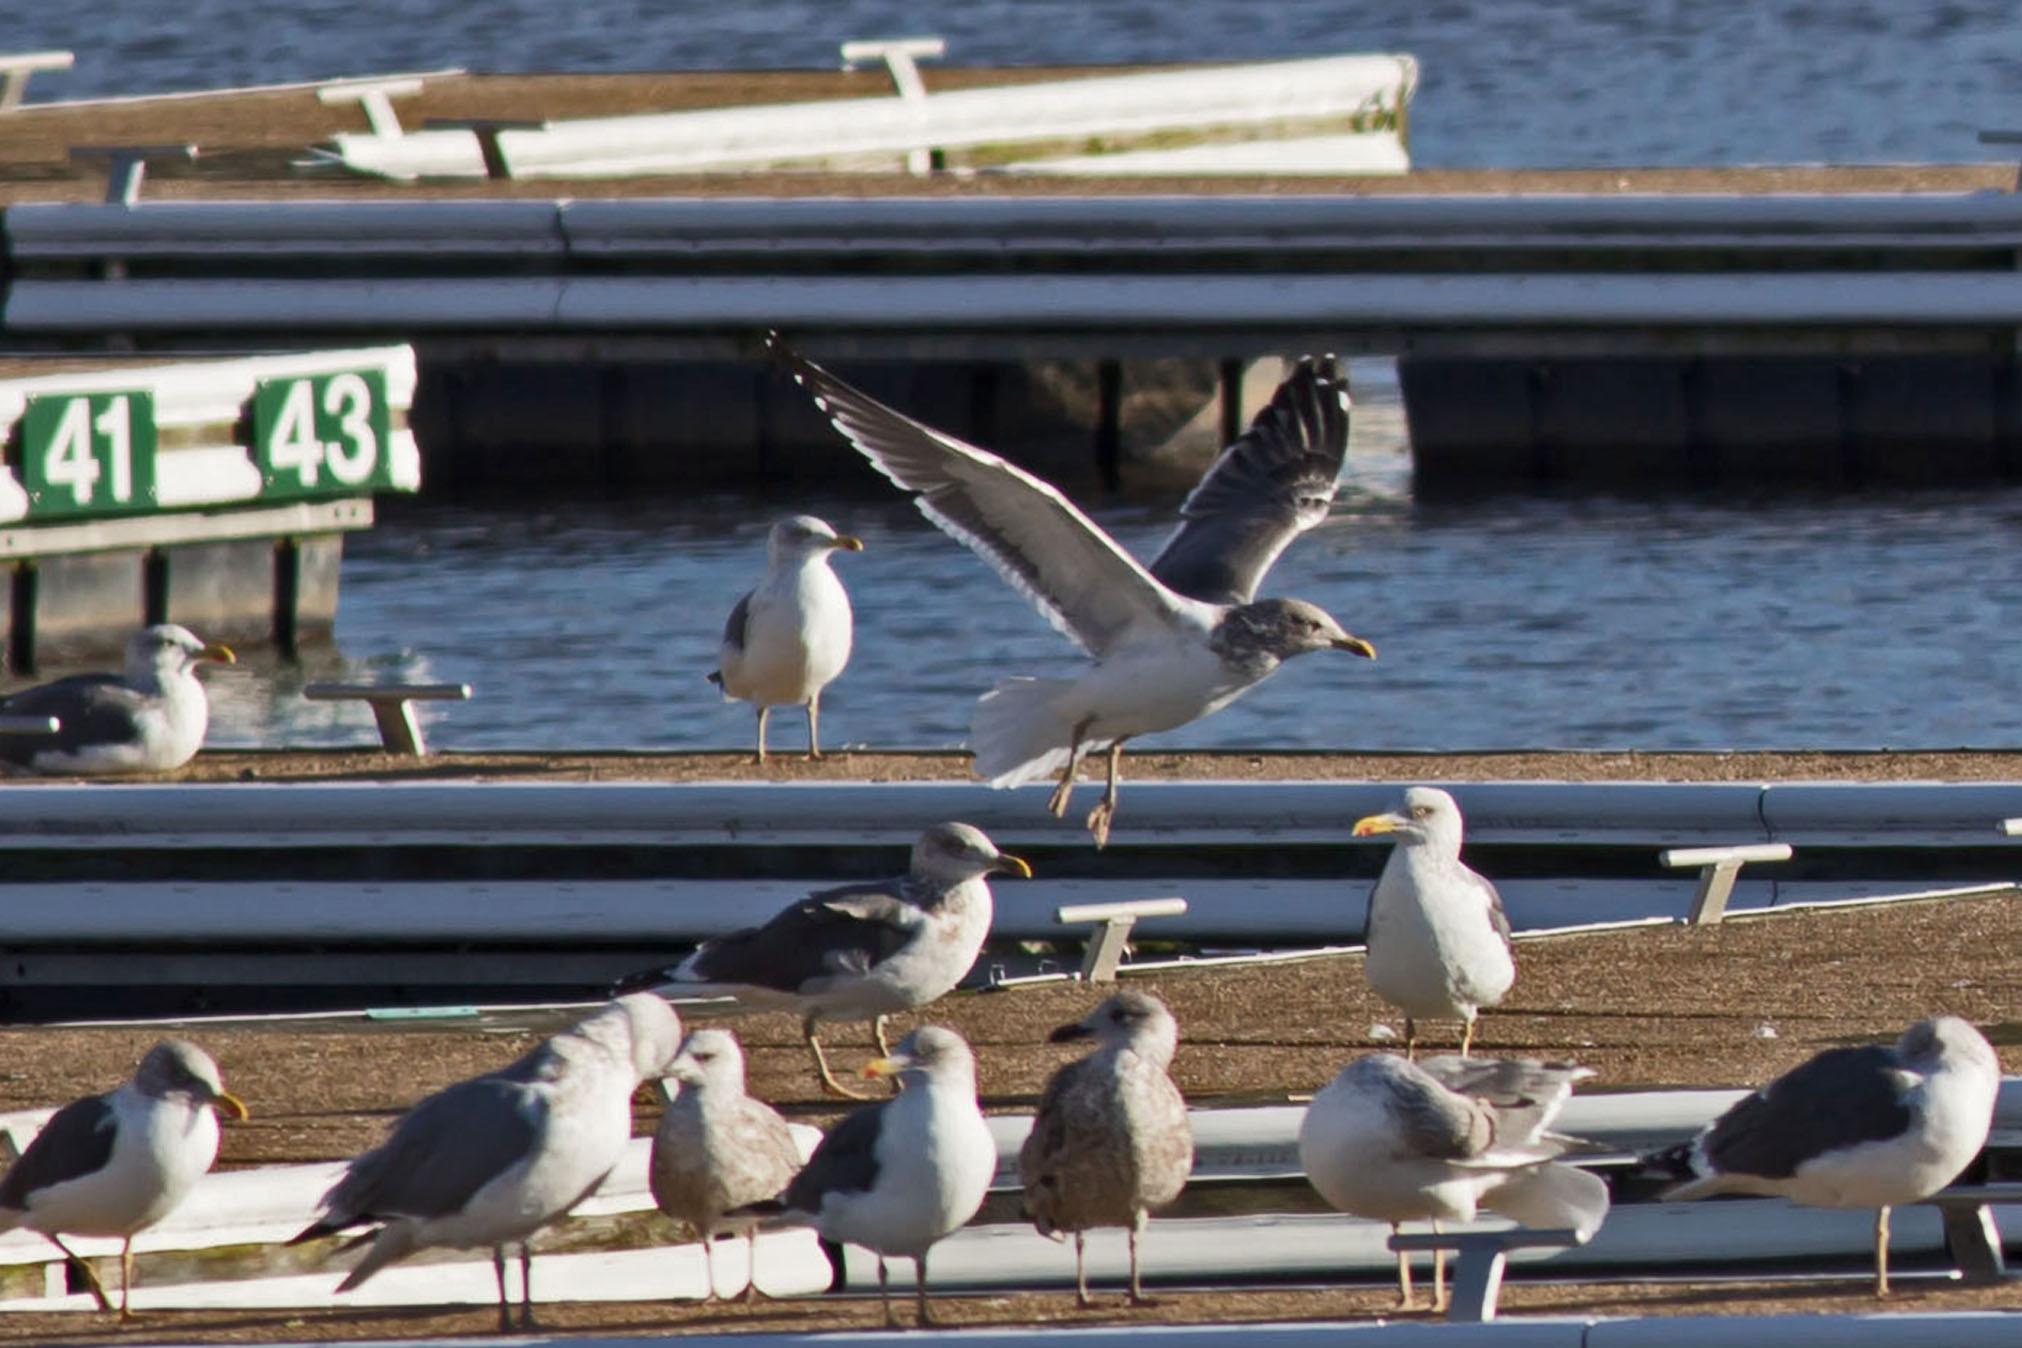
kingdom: Animalia
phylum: Chordata
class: Aves
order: Charadriiformes
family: Laridae
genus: Larus
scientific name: Larus fuscus
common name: Lesser black-backed gull
